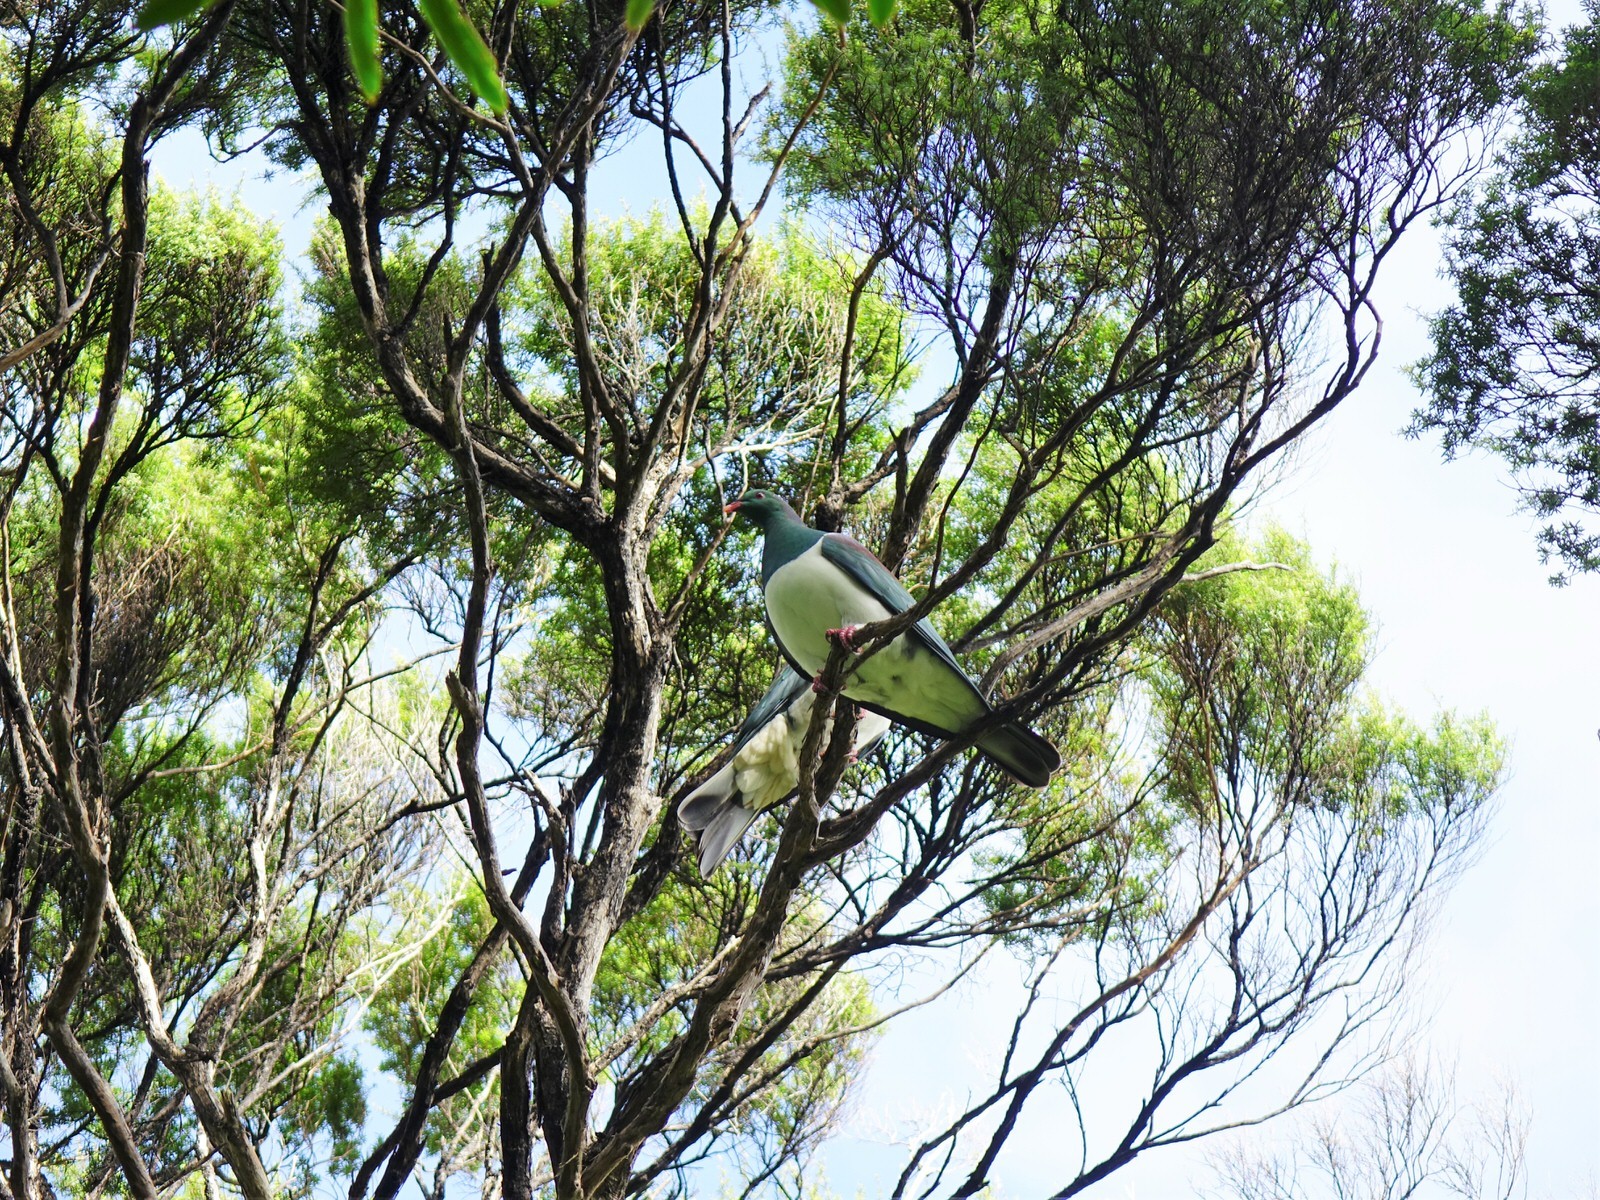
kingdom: Animalia
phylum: Chordata
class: Aves
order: Columbiformes
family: Columbidae
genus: Hemiphaga
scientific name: Hemiphaga novaeseelandiae
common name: New zealand pigeon
